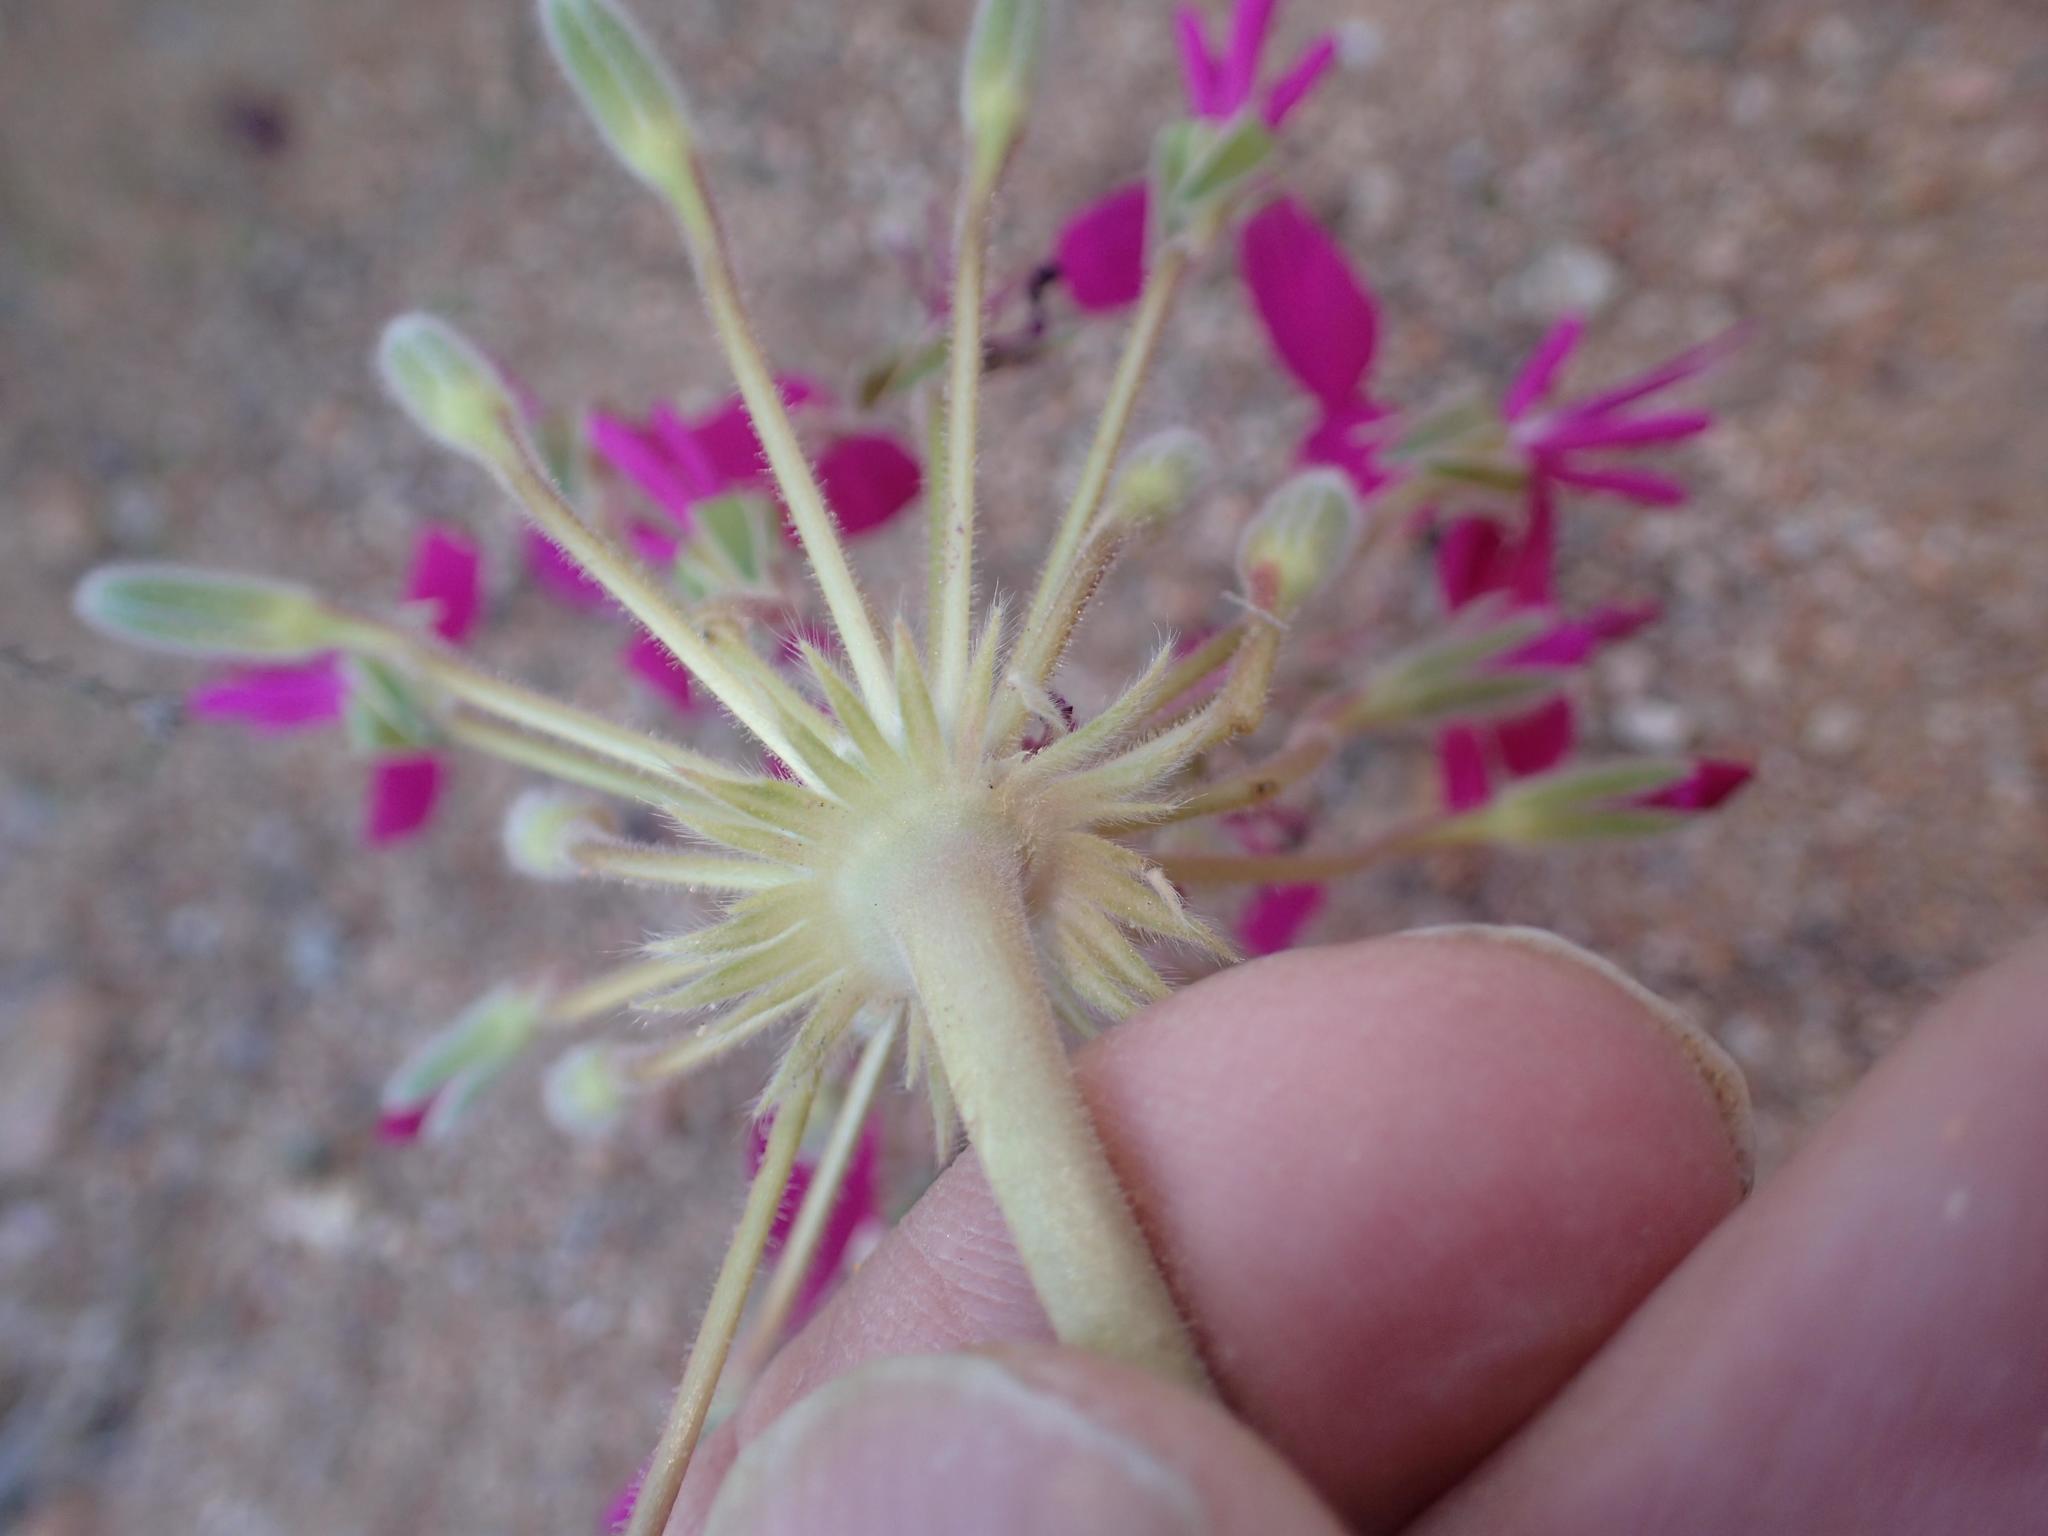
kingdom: Plantae
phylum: Tracheophyta
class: Magnoliopsida
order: Geraniales
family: Geraniaceae
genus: Pelargonium
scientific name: Pelargonium incrassatum
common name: Namaqualand beauty
